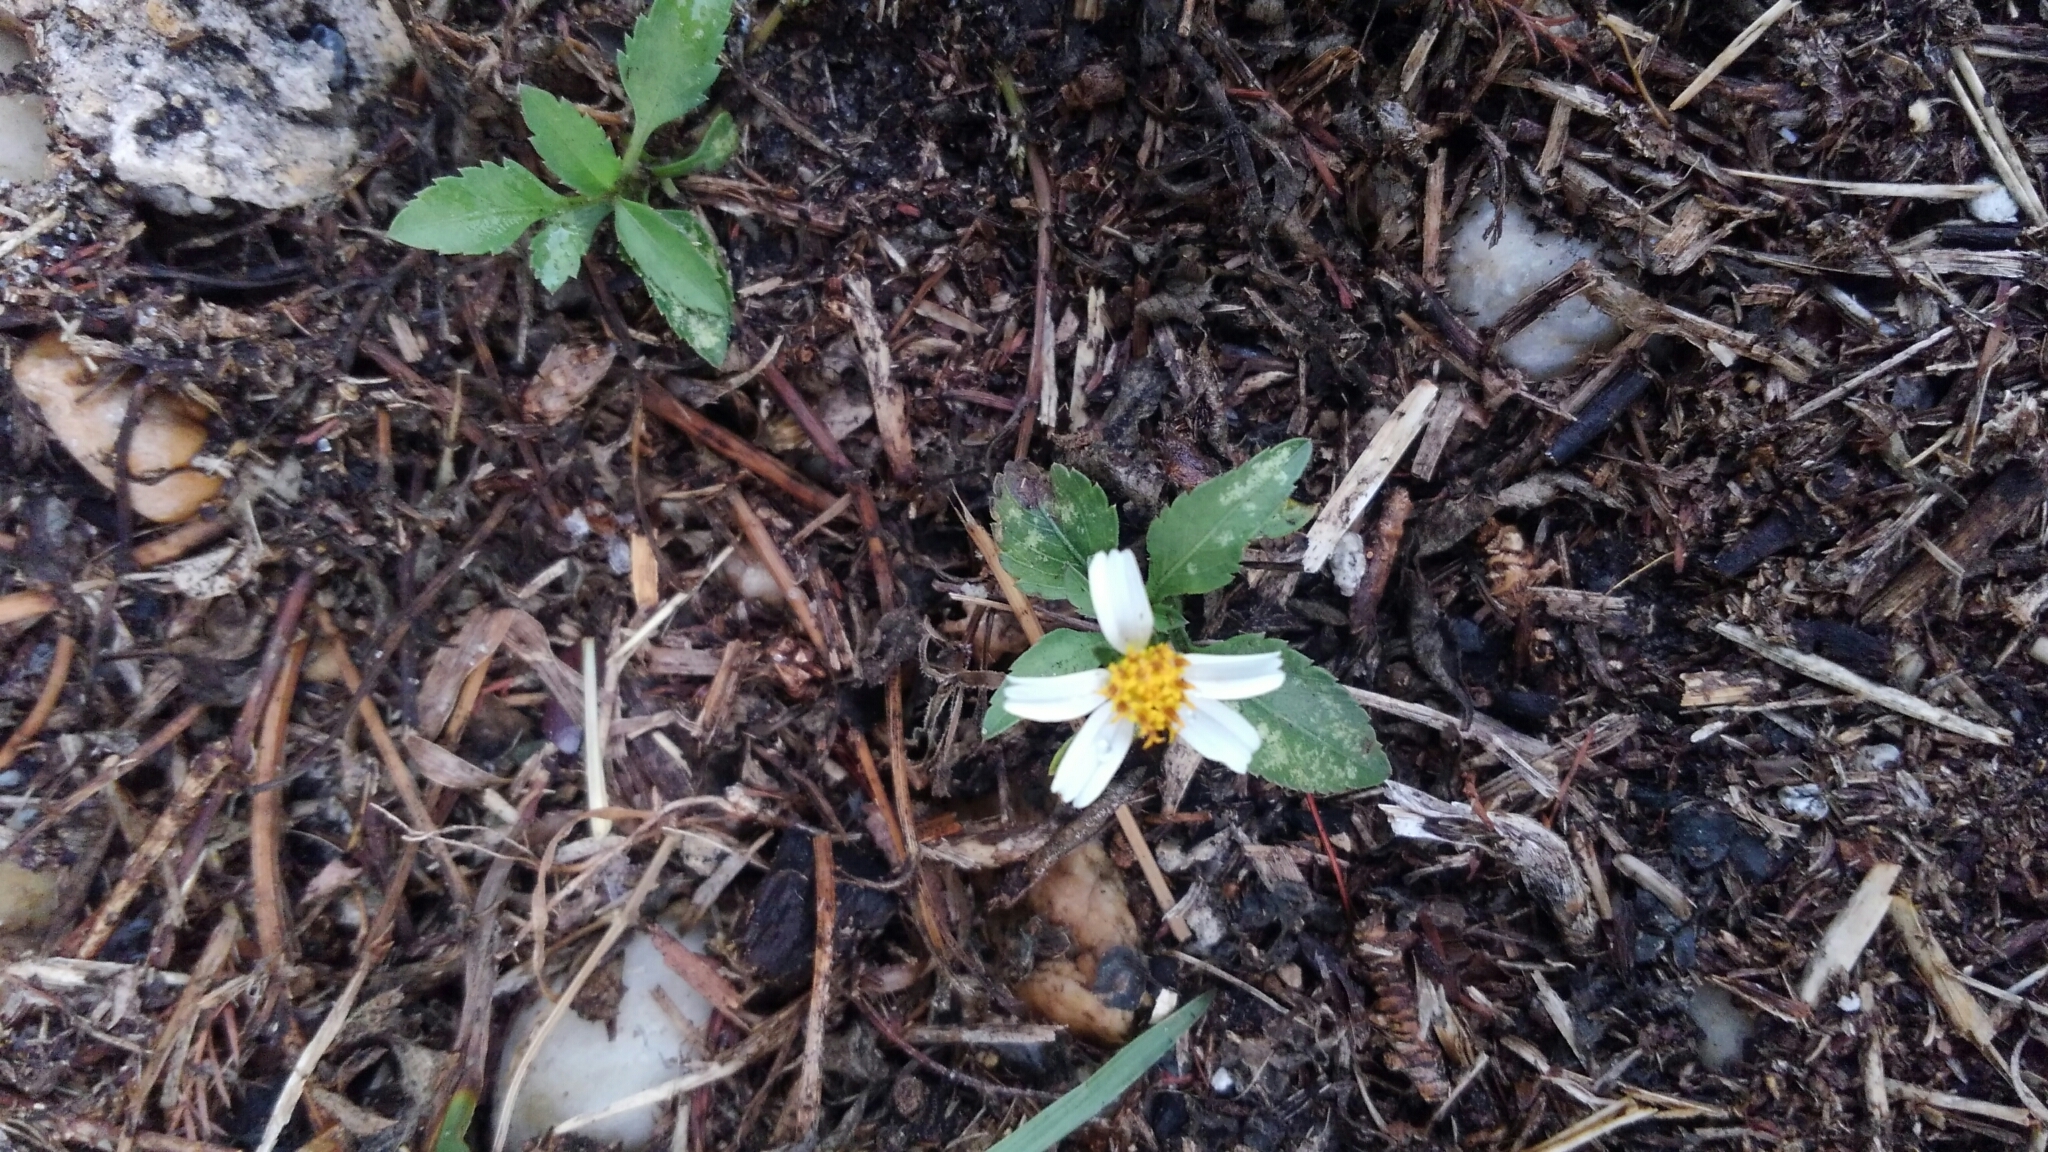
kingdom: Plantae
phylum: Tracheophyta
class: Magnoliopsida
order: Asterales
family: Asteraceae
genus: Bidens
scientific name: Bidens alba
